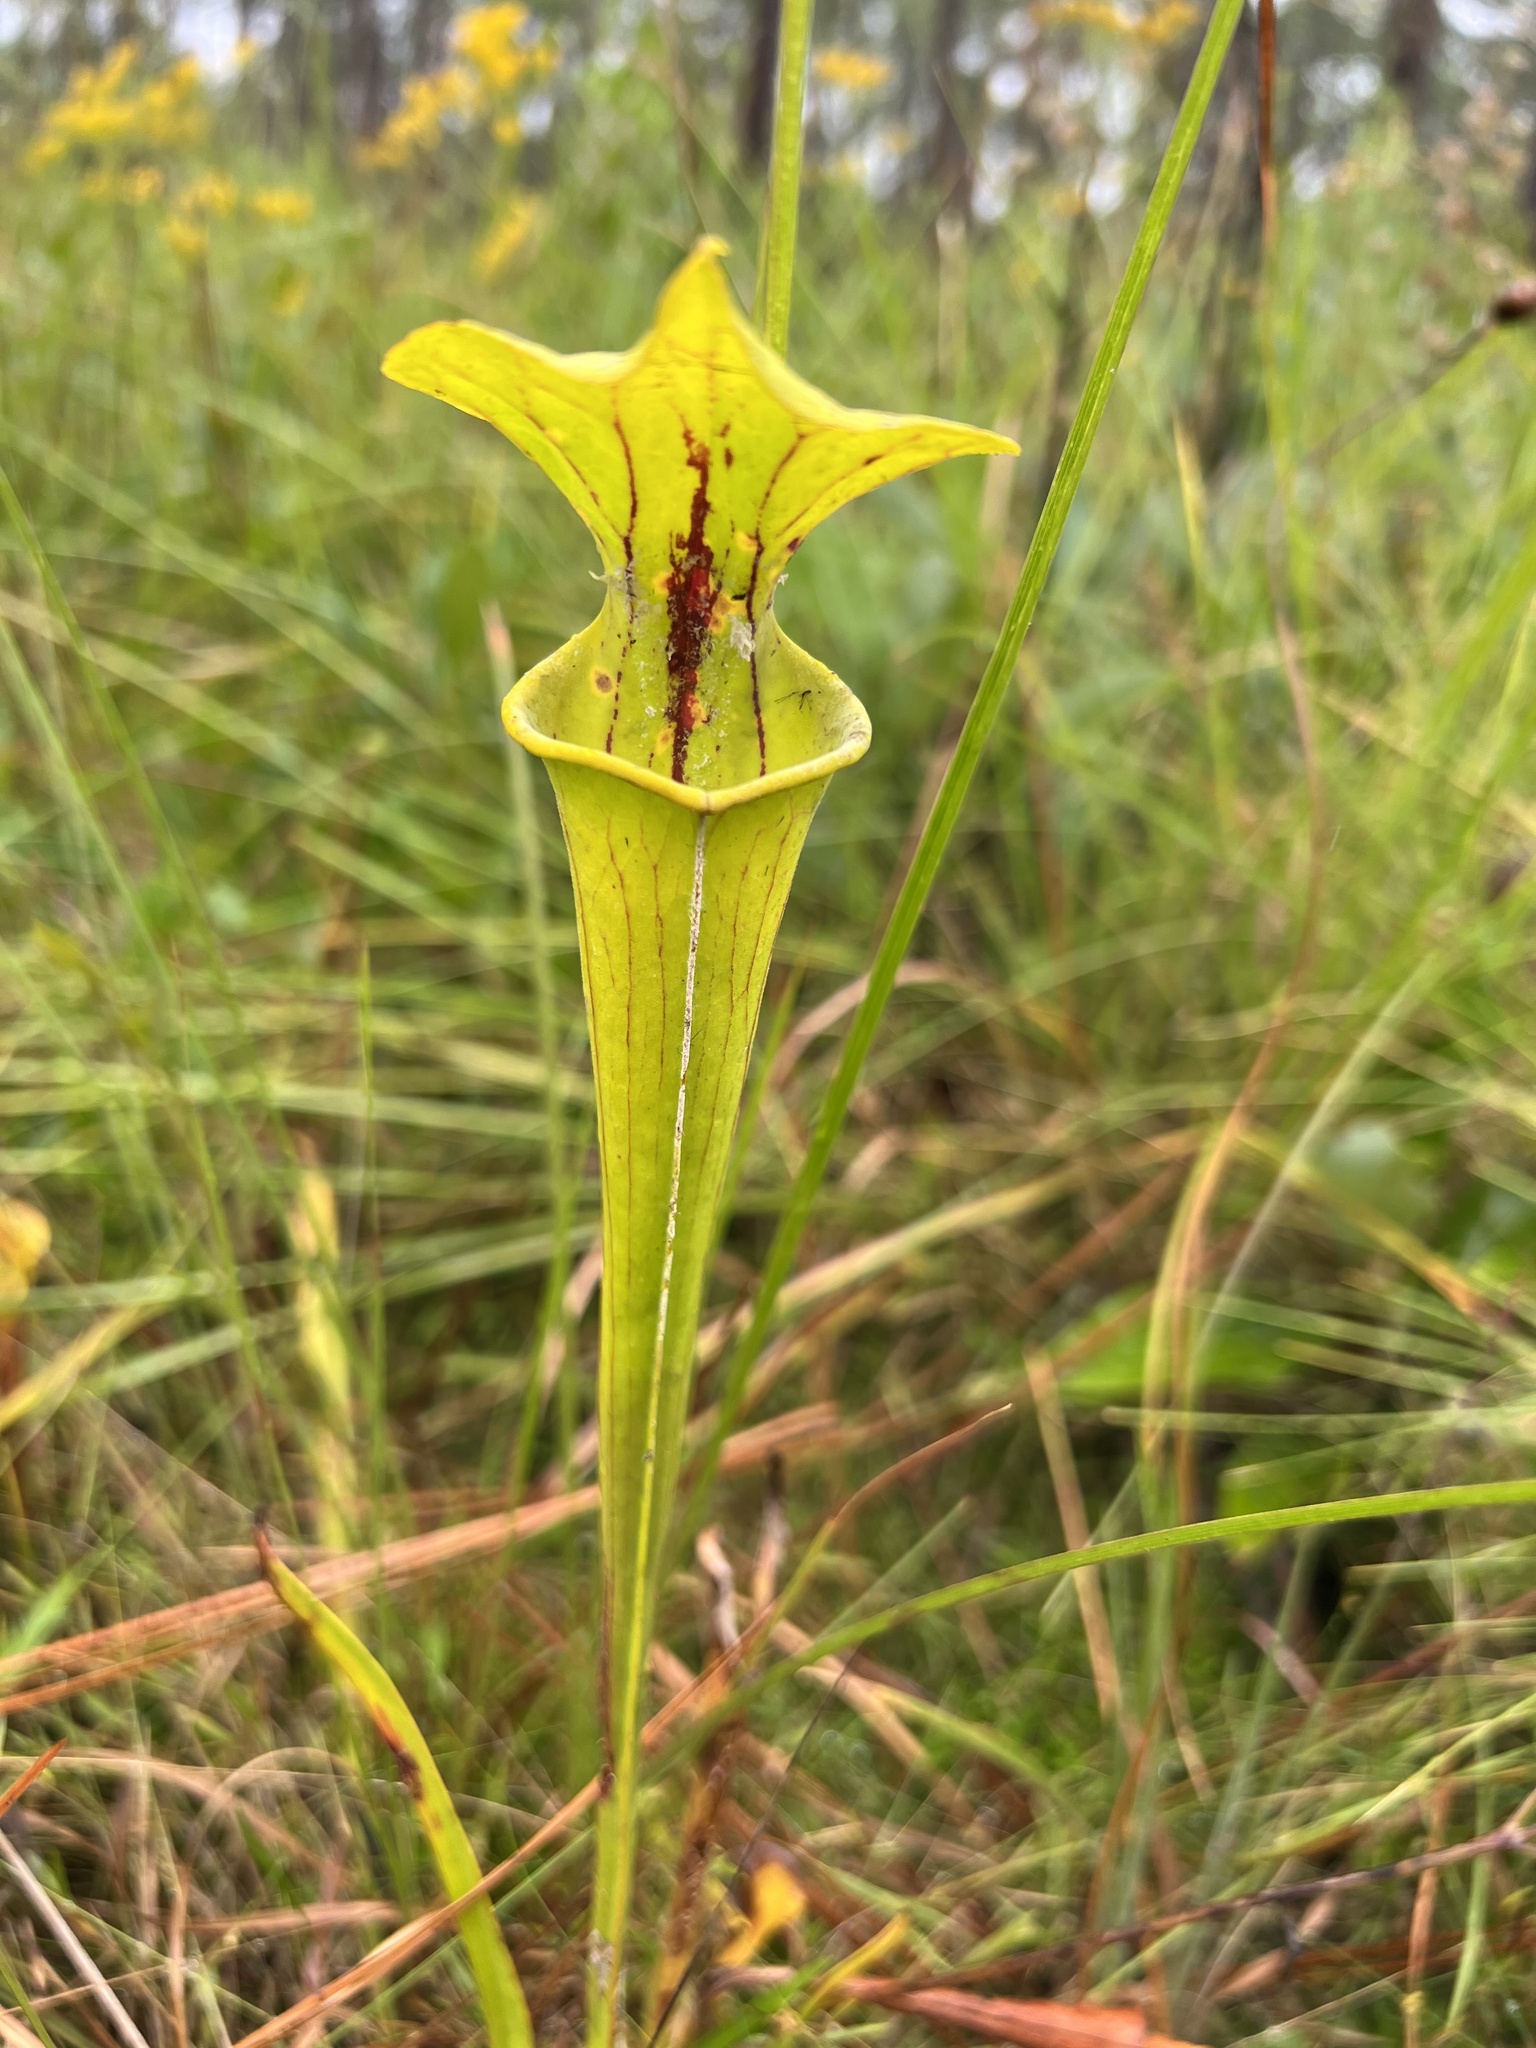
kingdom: Plantae
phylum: Tracheophyta
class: Magnoliopsida
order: Ericales
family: Sarraceniaceae
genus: Sarracenia
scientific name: Sarracenia flava
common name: Trumpets
